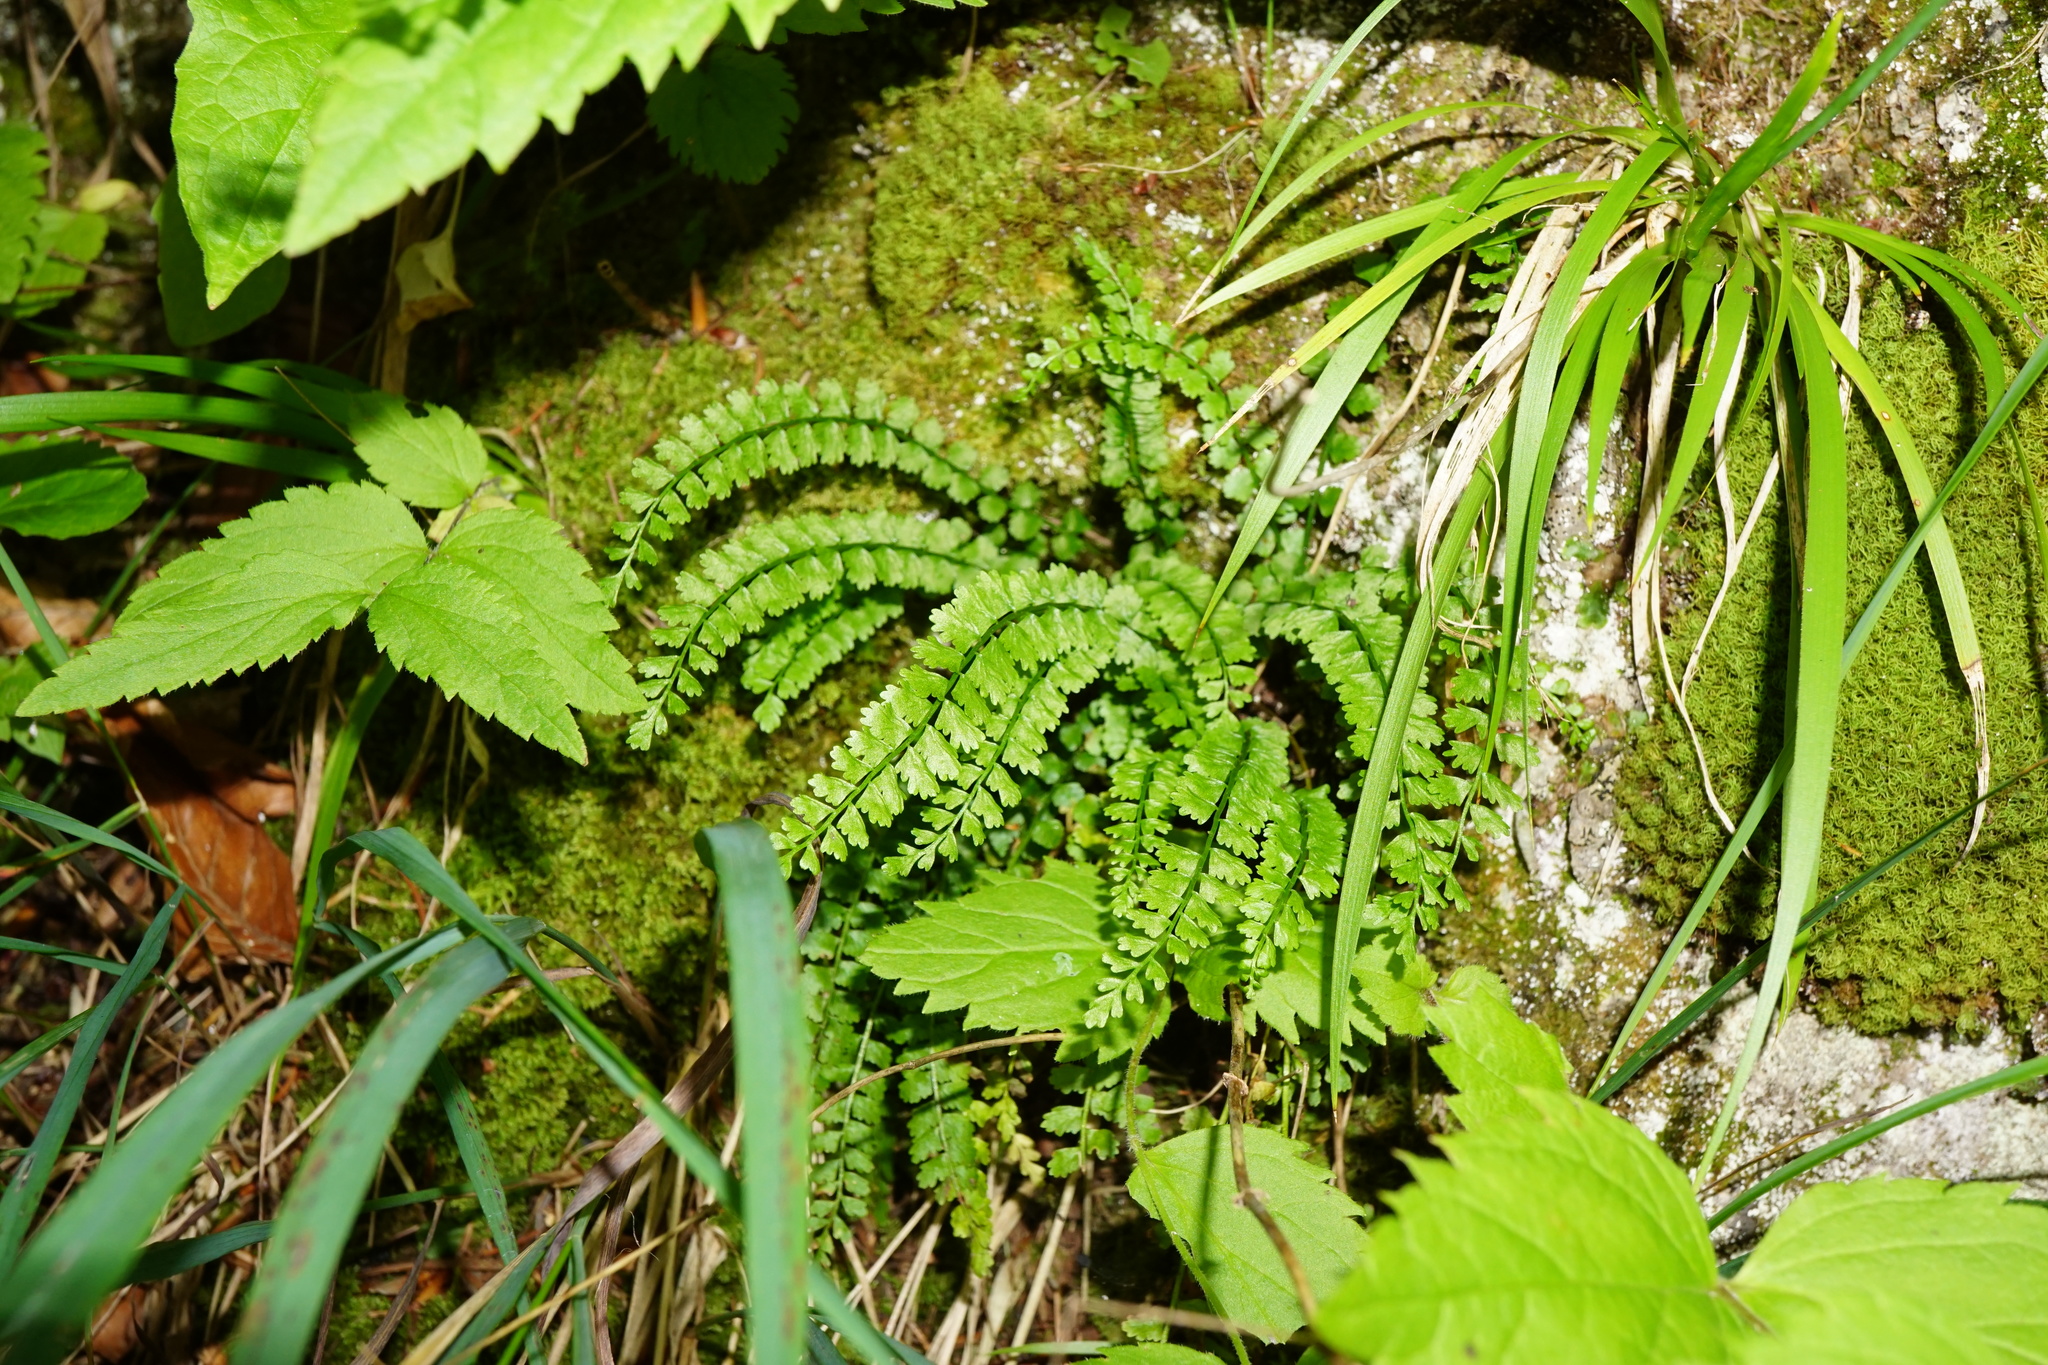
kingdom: Plantae
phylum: Tracheophyta
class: Polypodiopsida
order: Polypodiales
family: Aspleniaceae
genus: Asplenium
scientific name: Asplenium viride
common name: Green spleenwort
